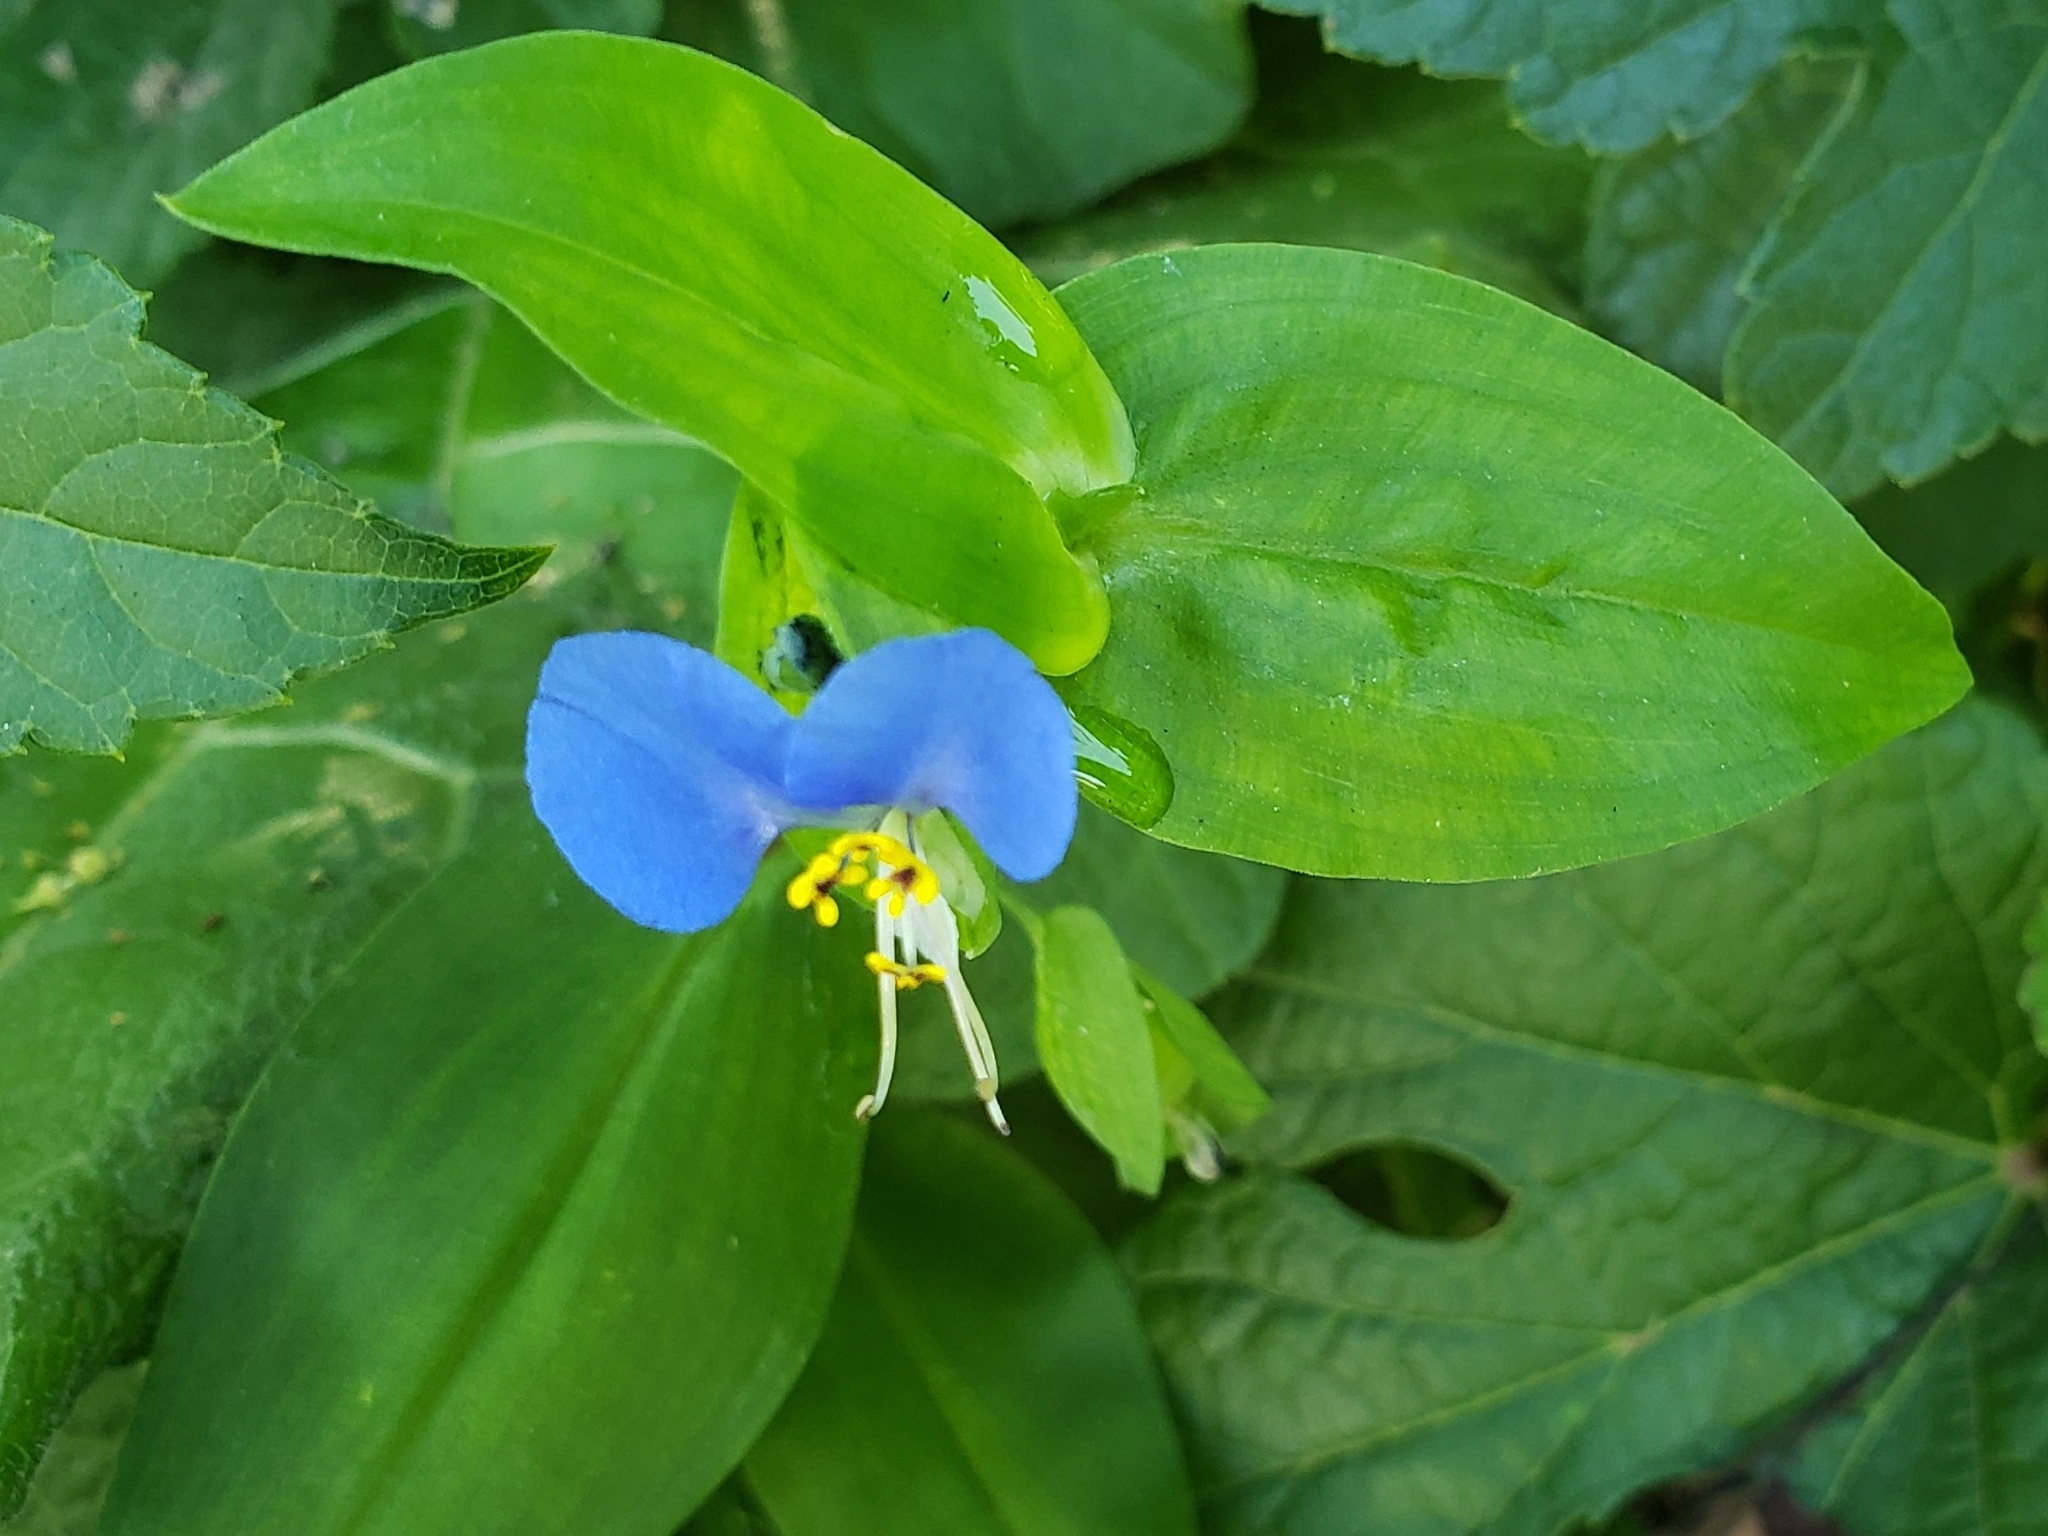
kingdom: Plantae
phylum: Tracheophyta
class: Liliopsida
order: Commelinales
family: Commelinaceae
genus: Commelina
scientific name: Commelina communis
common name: Asiatic dayflower
